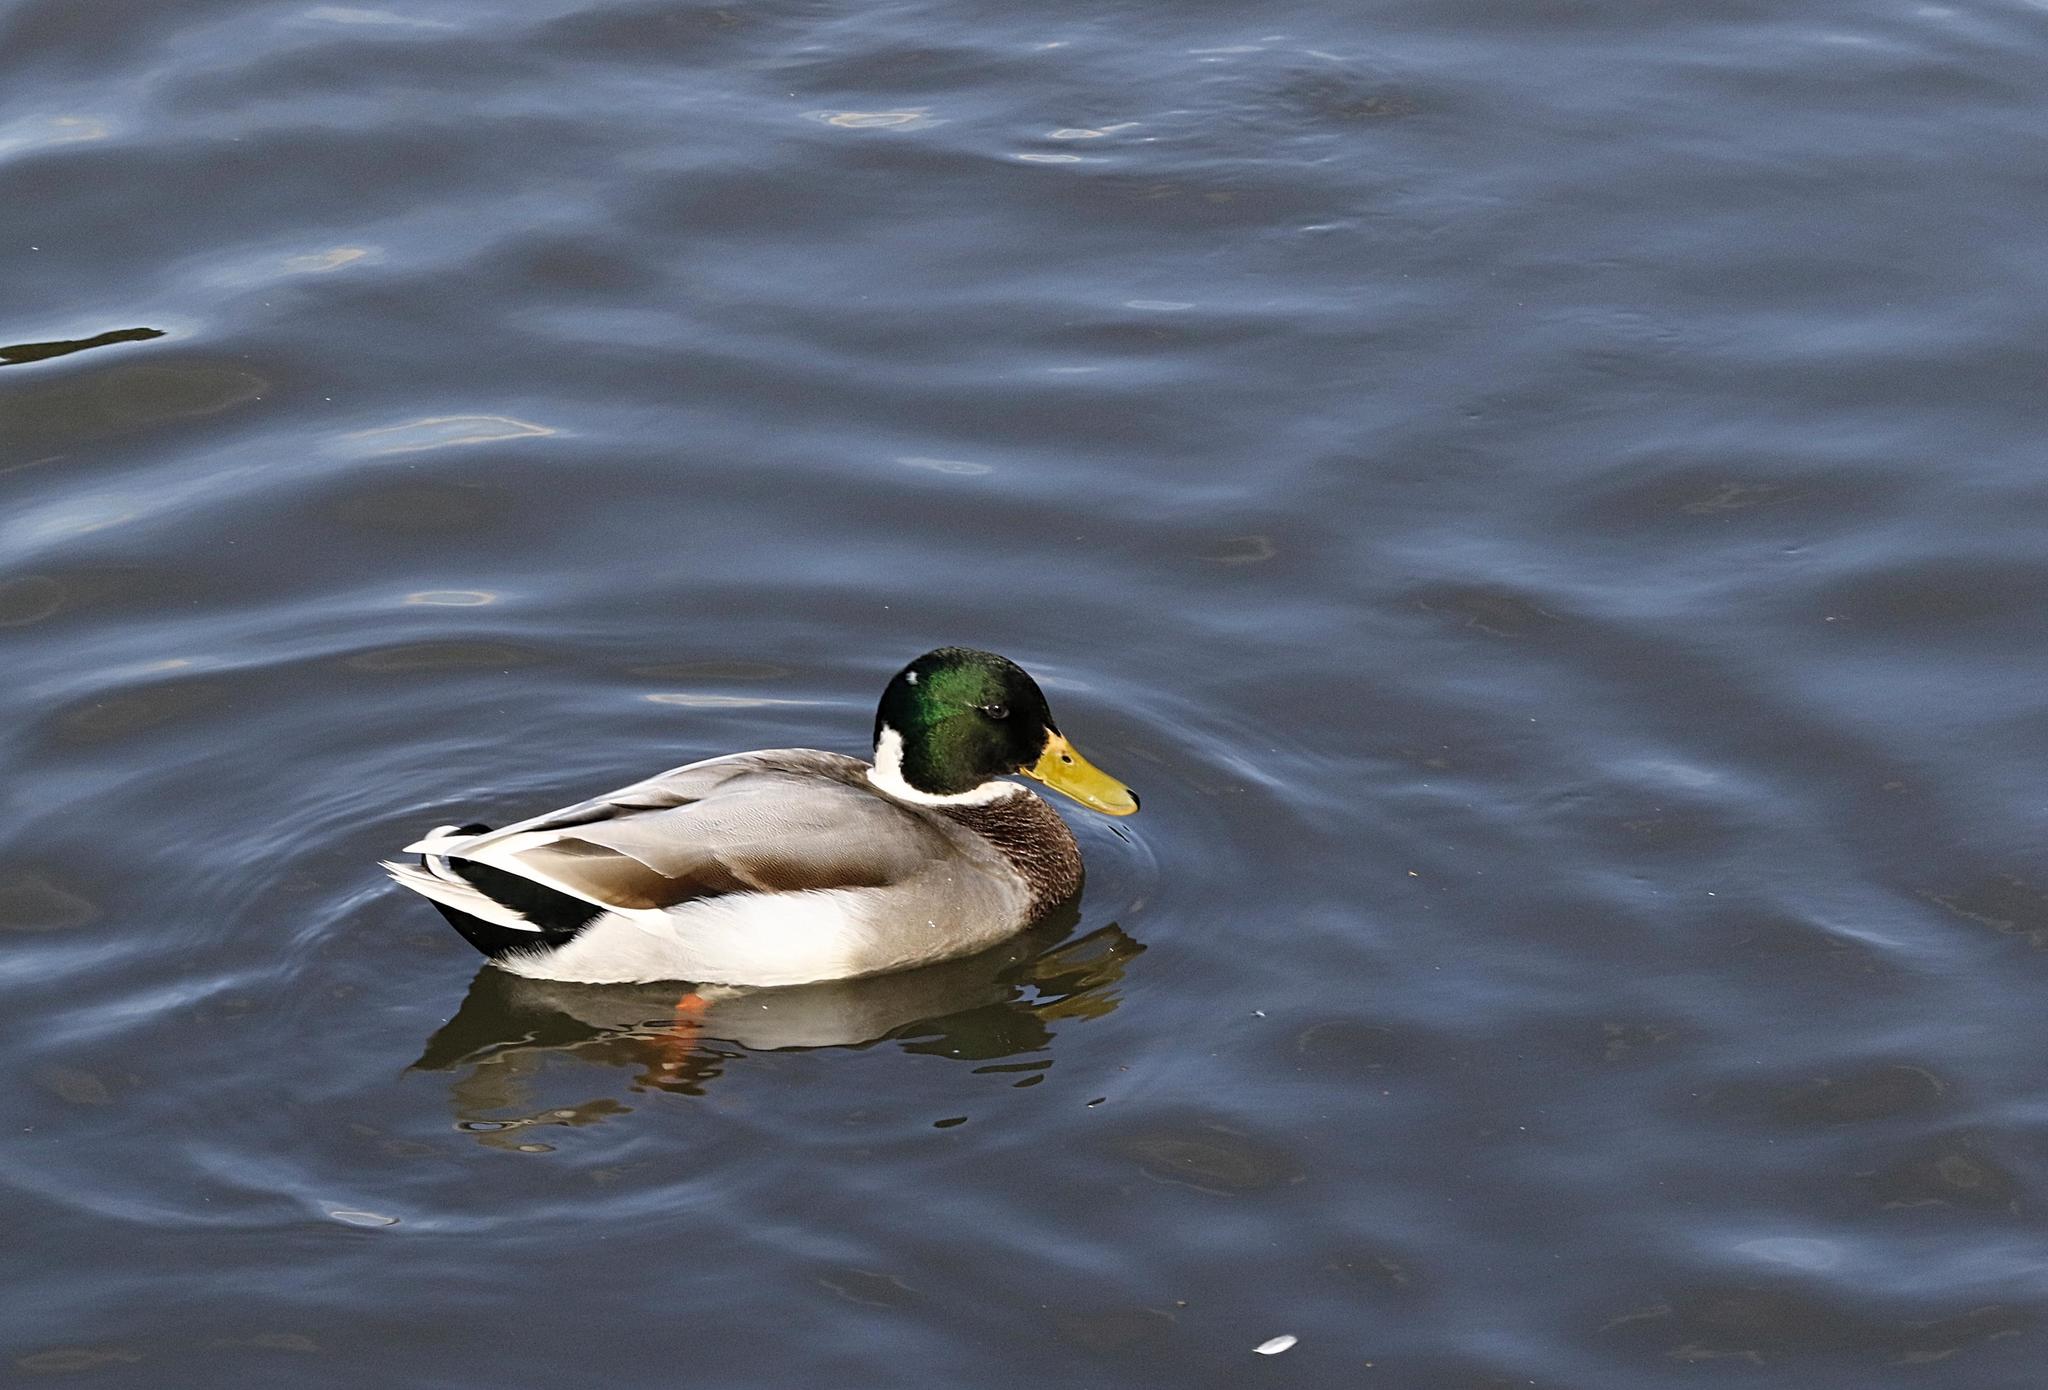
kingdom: Animalia
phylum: Chordata
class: Aves
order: Anseriformes
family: Anatidae
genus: Anas
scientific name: Anas platyrhynchos
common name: Mallard
